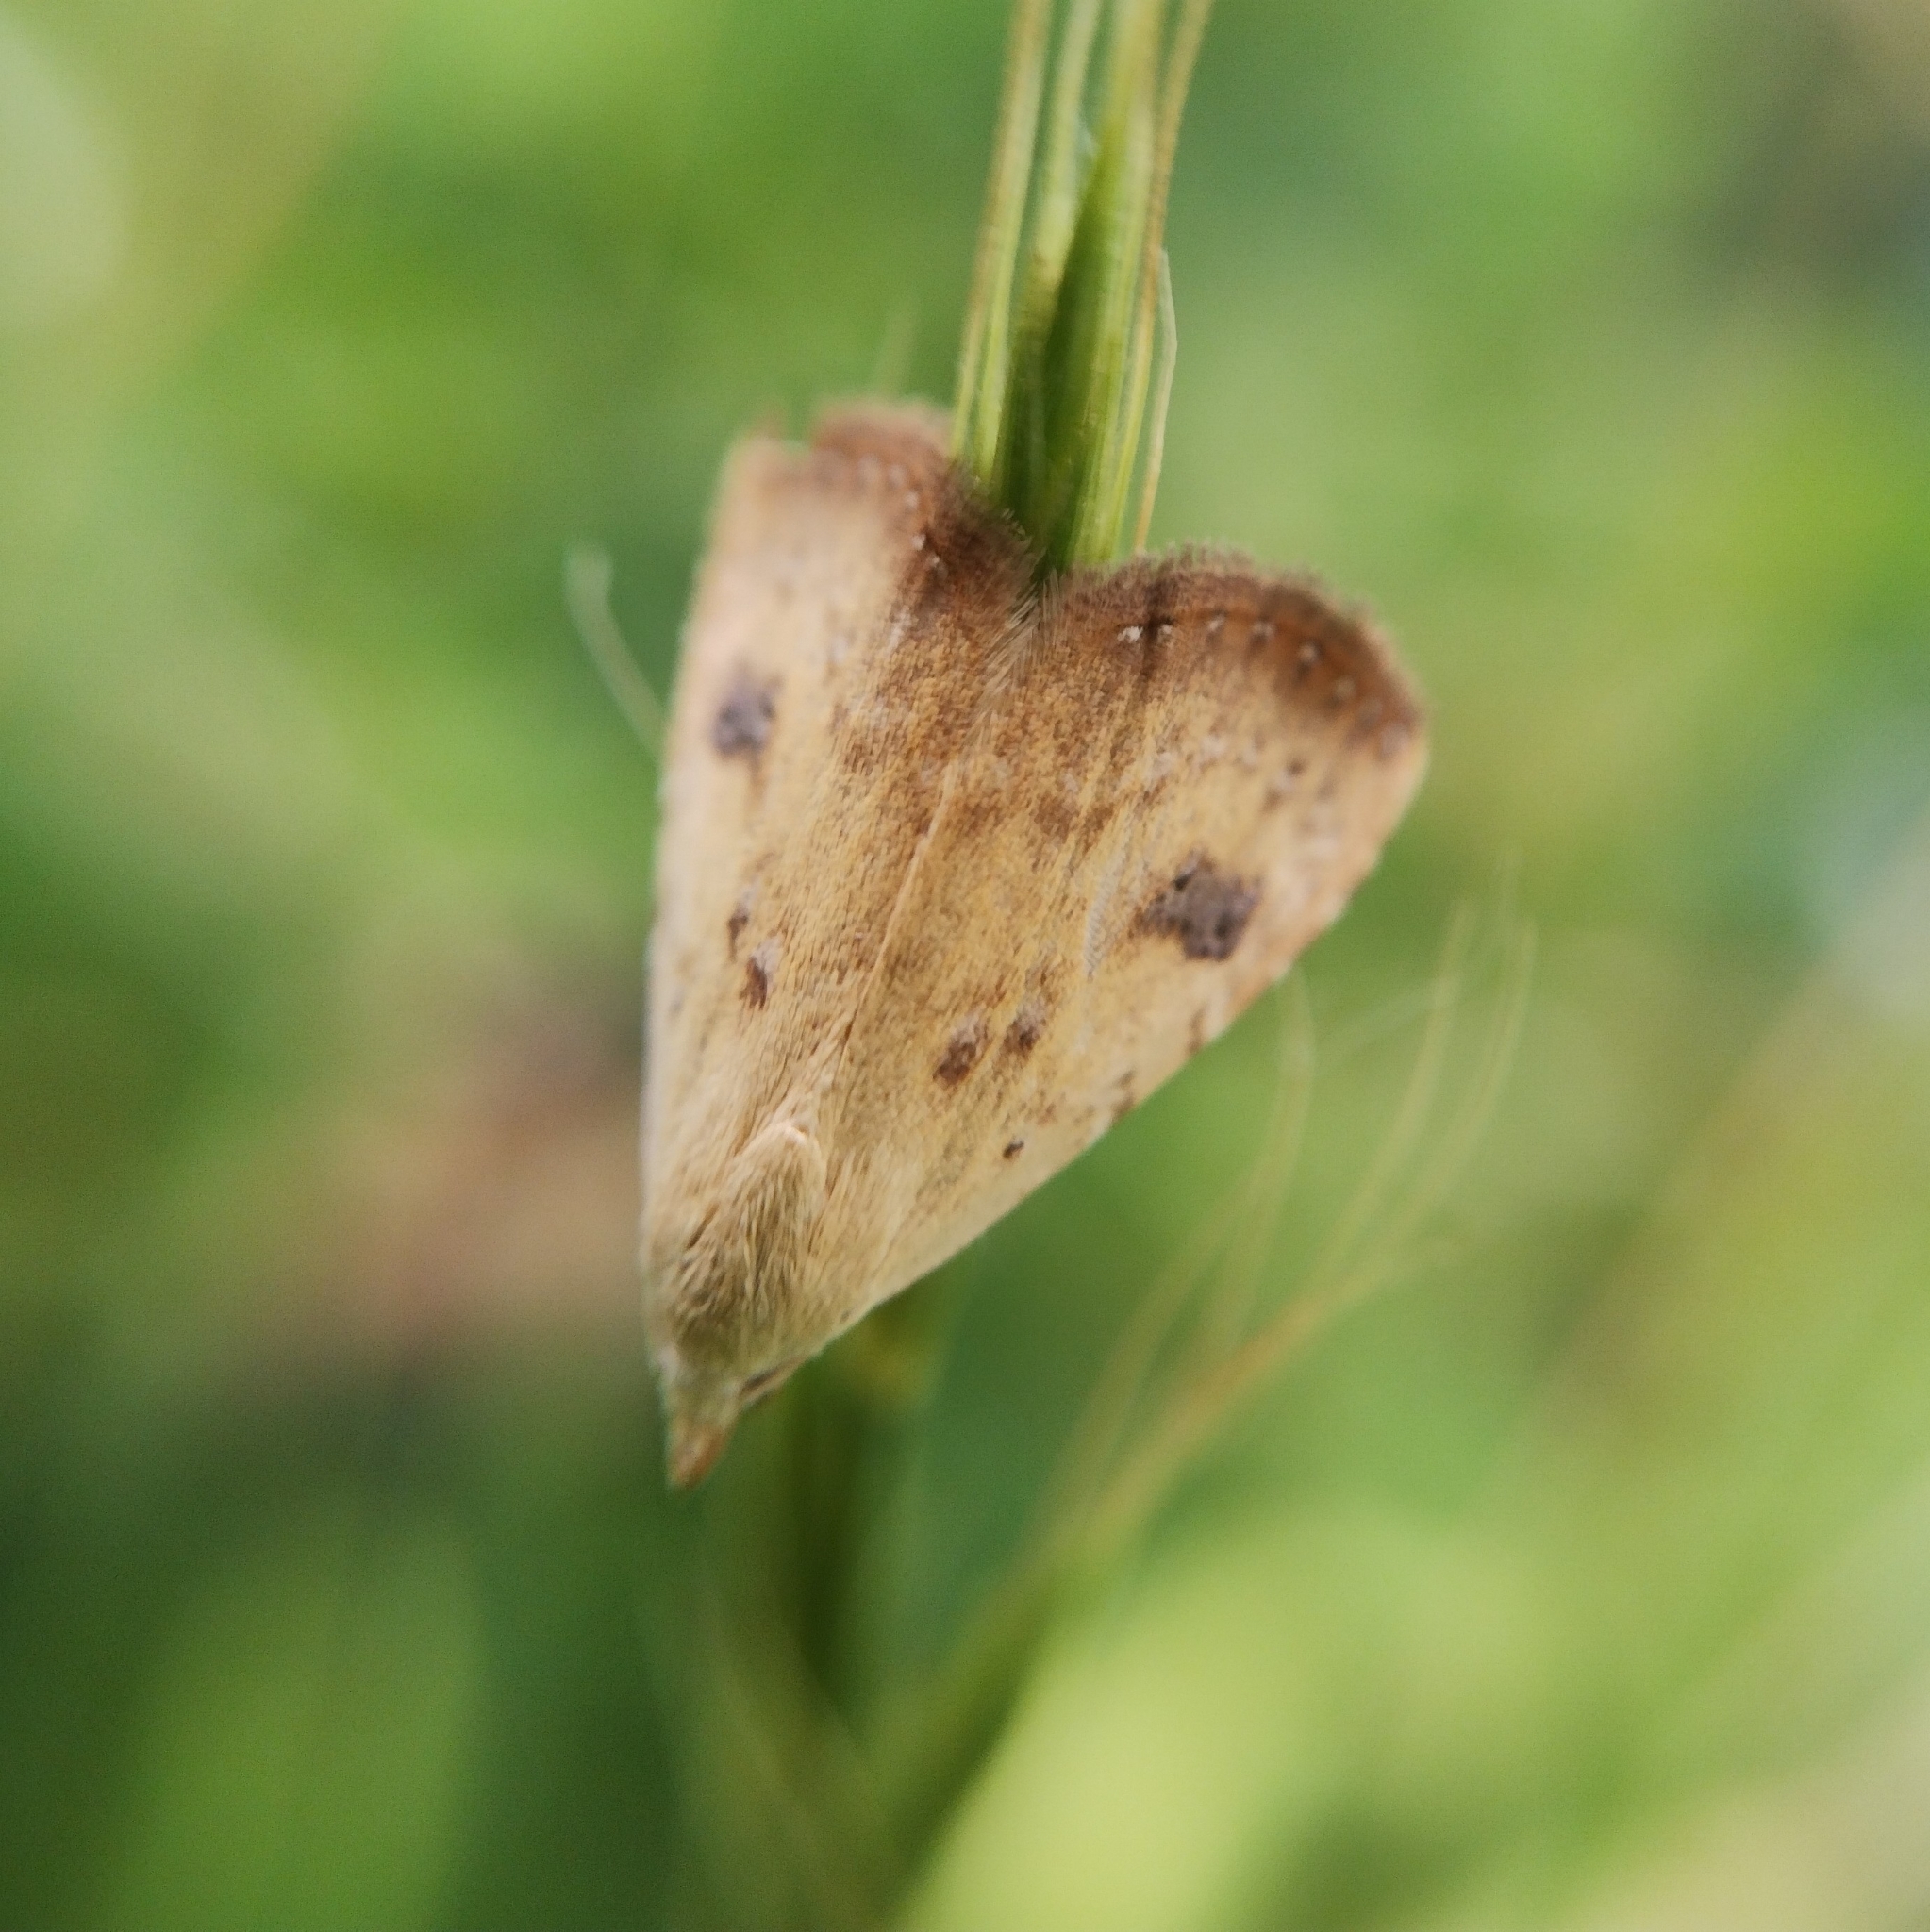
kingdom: Animalia
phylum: Arthropoda
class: Insecta
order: Lepidoptera
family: Erebidae
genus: Rivula
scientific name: Rivula sericealis
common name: Straw dot
